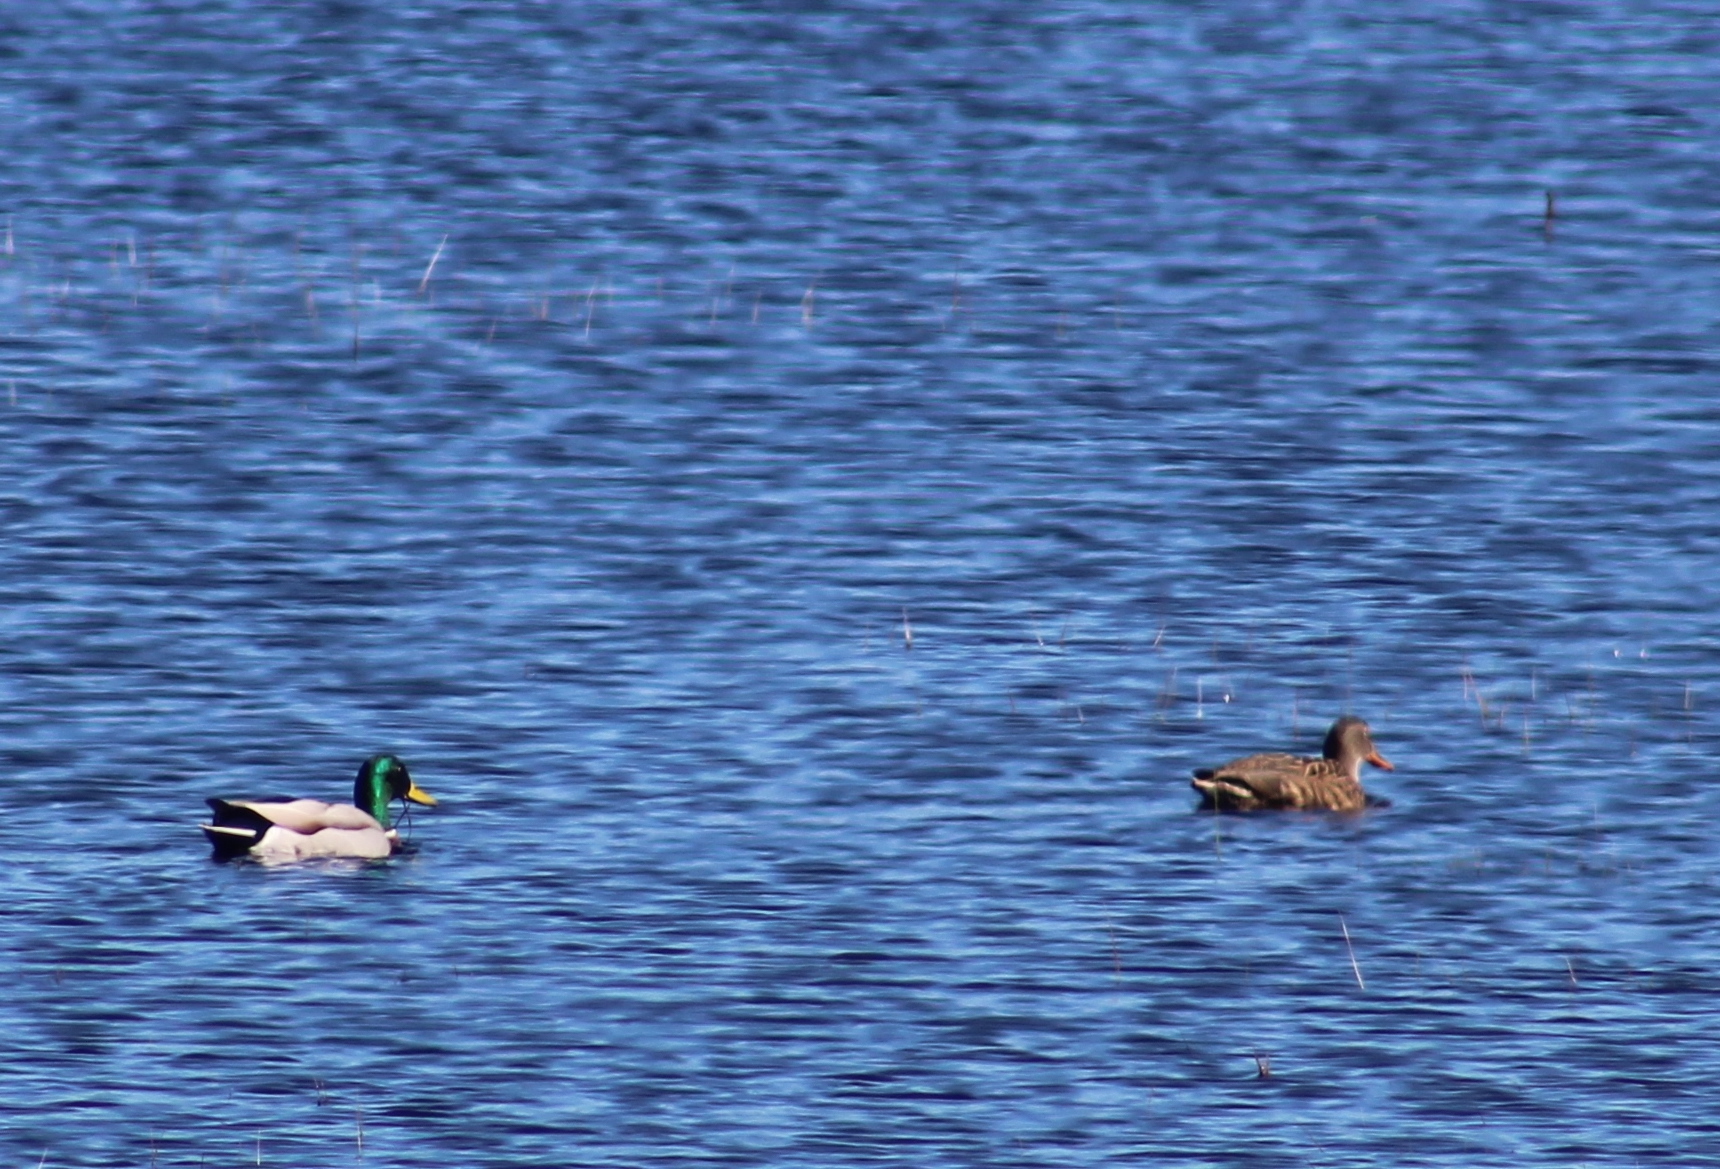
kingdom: Animalia
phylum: Chordata
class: Aves
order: Anseriformes
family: Anatidae
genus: Anas
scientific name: Anas platyrhynchos
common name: Mallard
